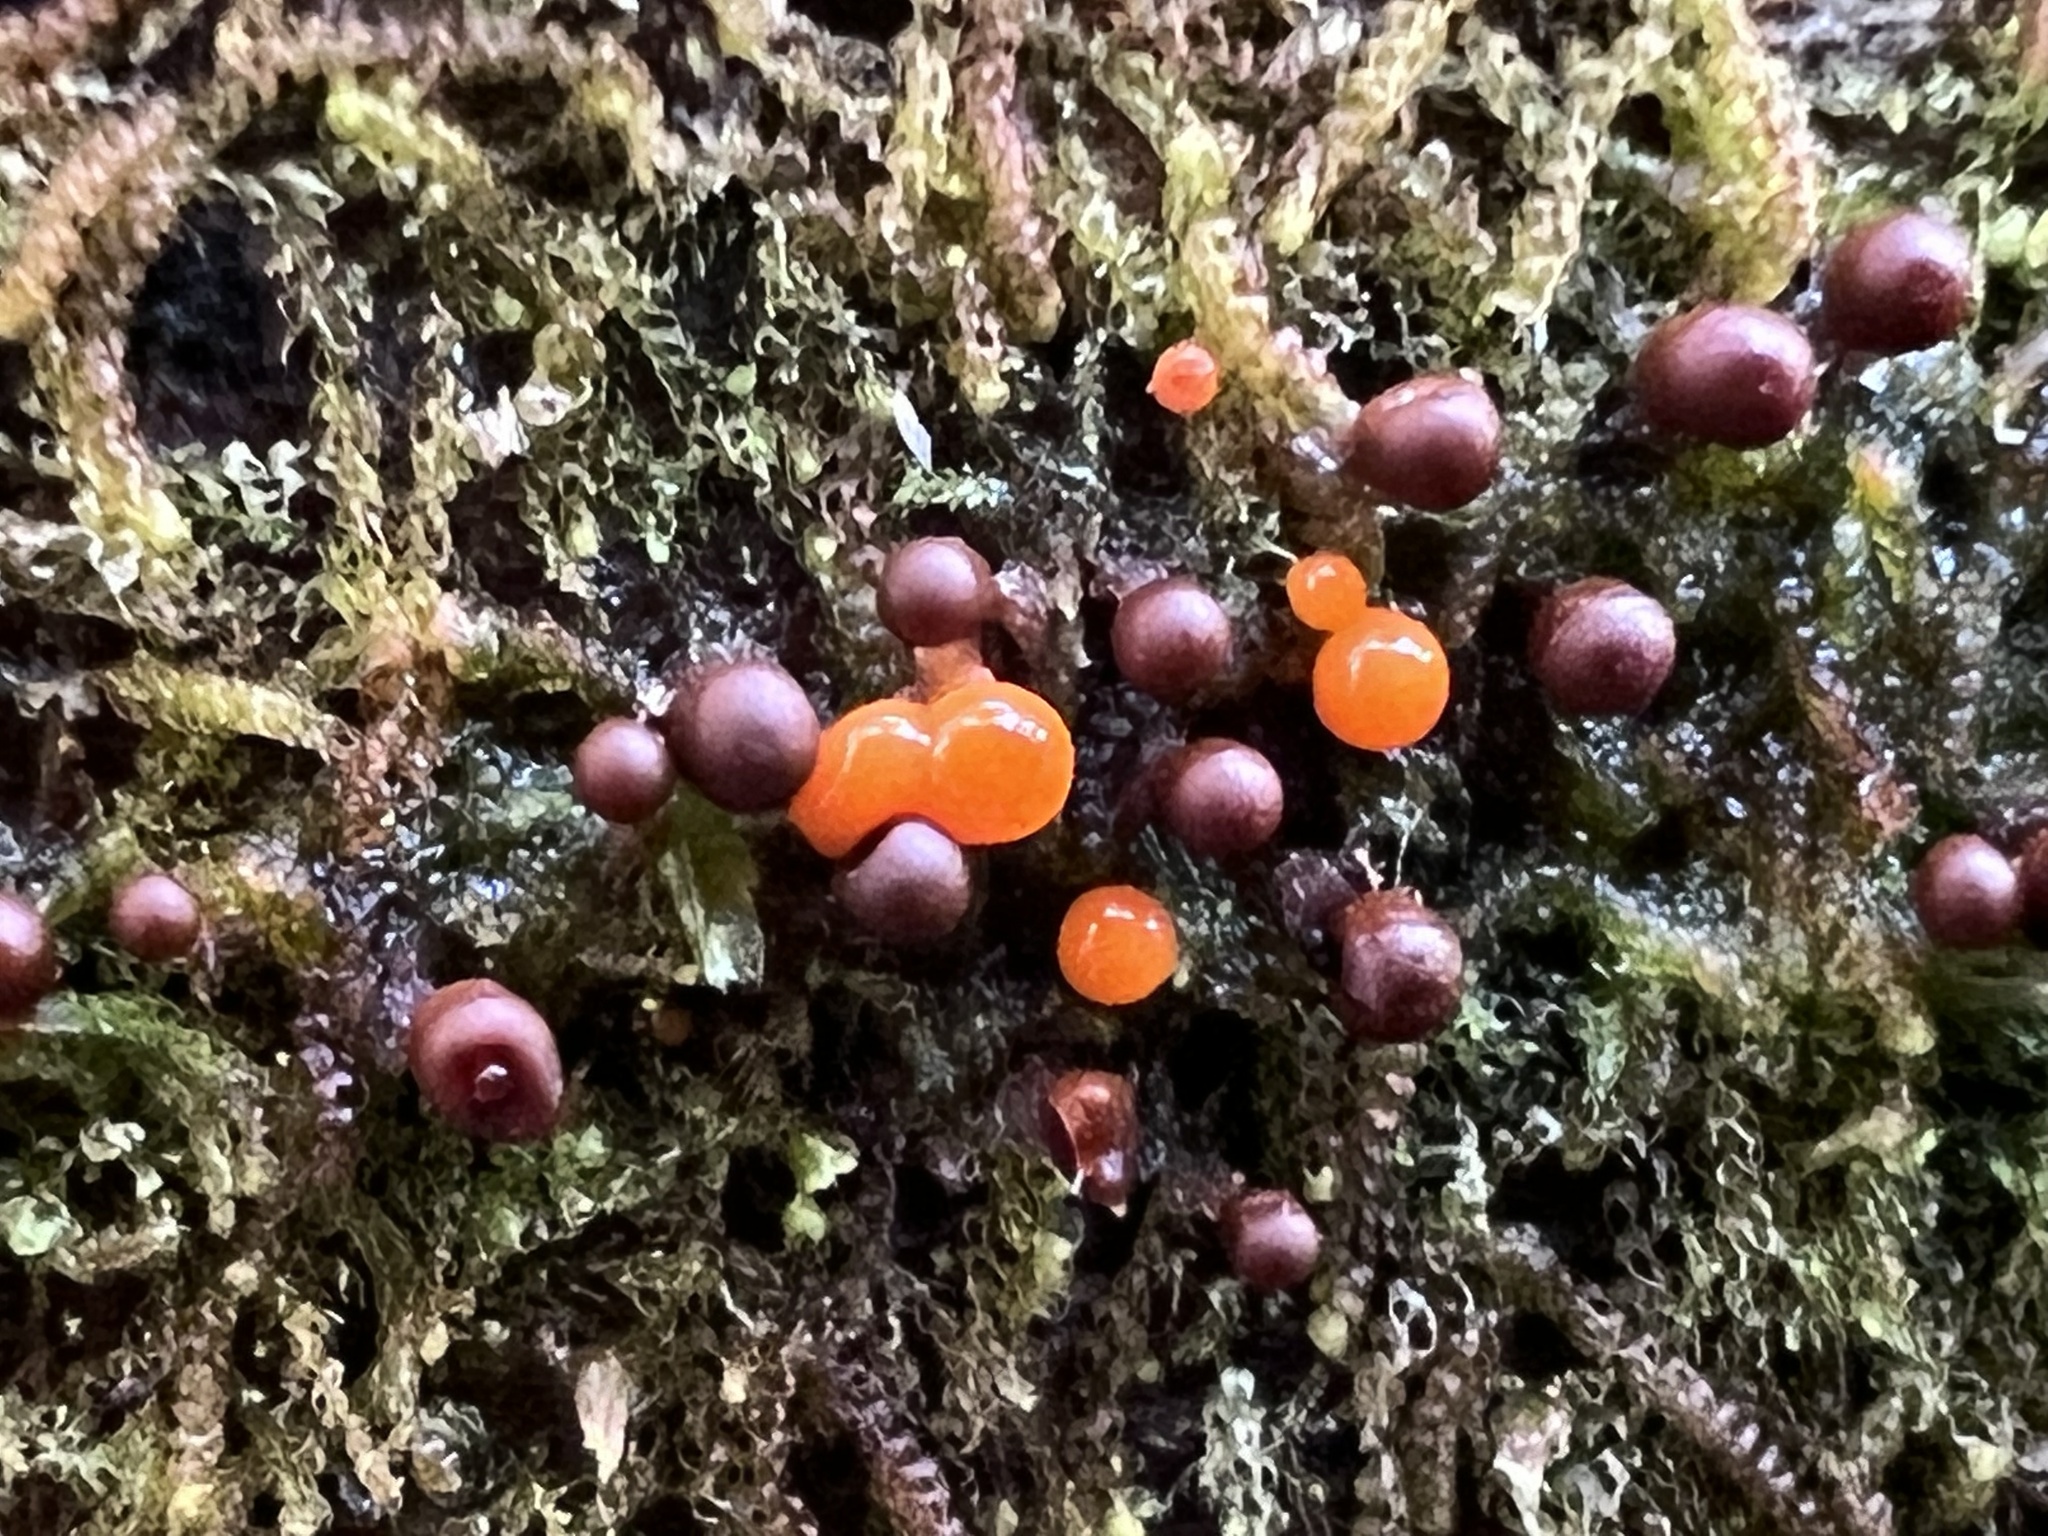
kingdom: Protozoa
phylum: Mycetozoa
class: Myxomycetes
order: Trichiales
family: Arcyriaceae
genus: Hemitrichia
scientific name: Hemitrichia decipiens
